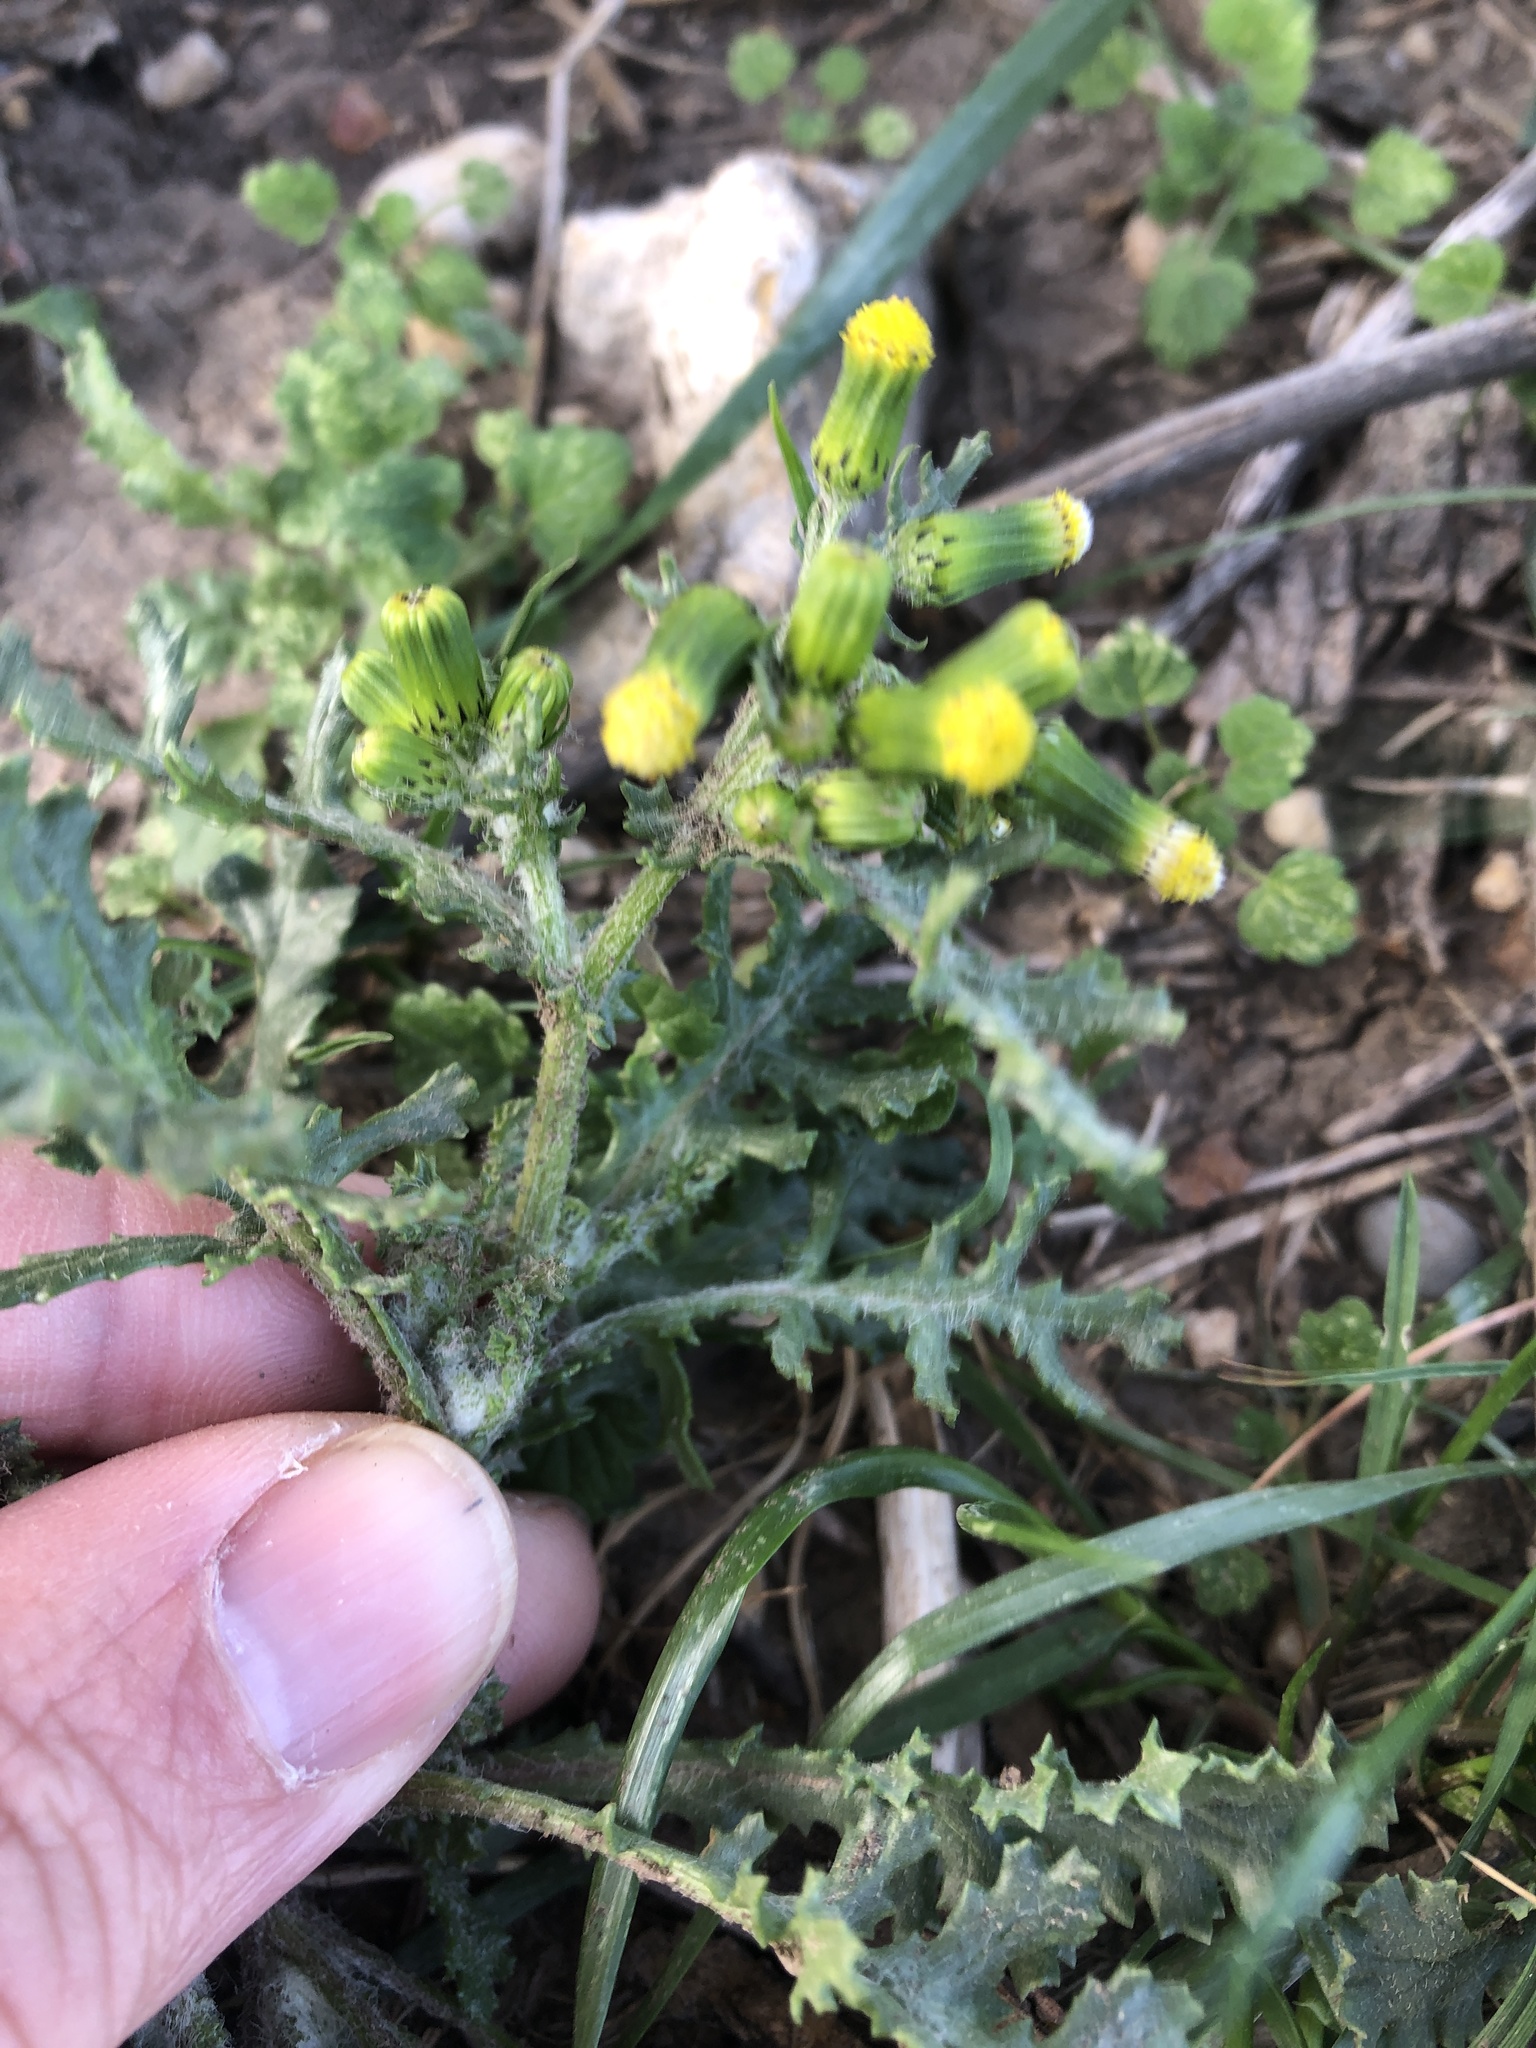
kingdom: Plantae
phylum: Tracheophyta
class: Magnoliopsida
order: Asterales
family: Asteraceae
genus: Senecio
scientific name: Senecio vulgaris
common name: Old-man-in-the-spring
